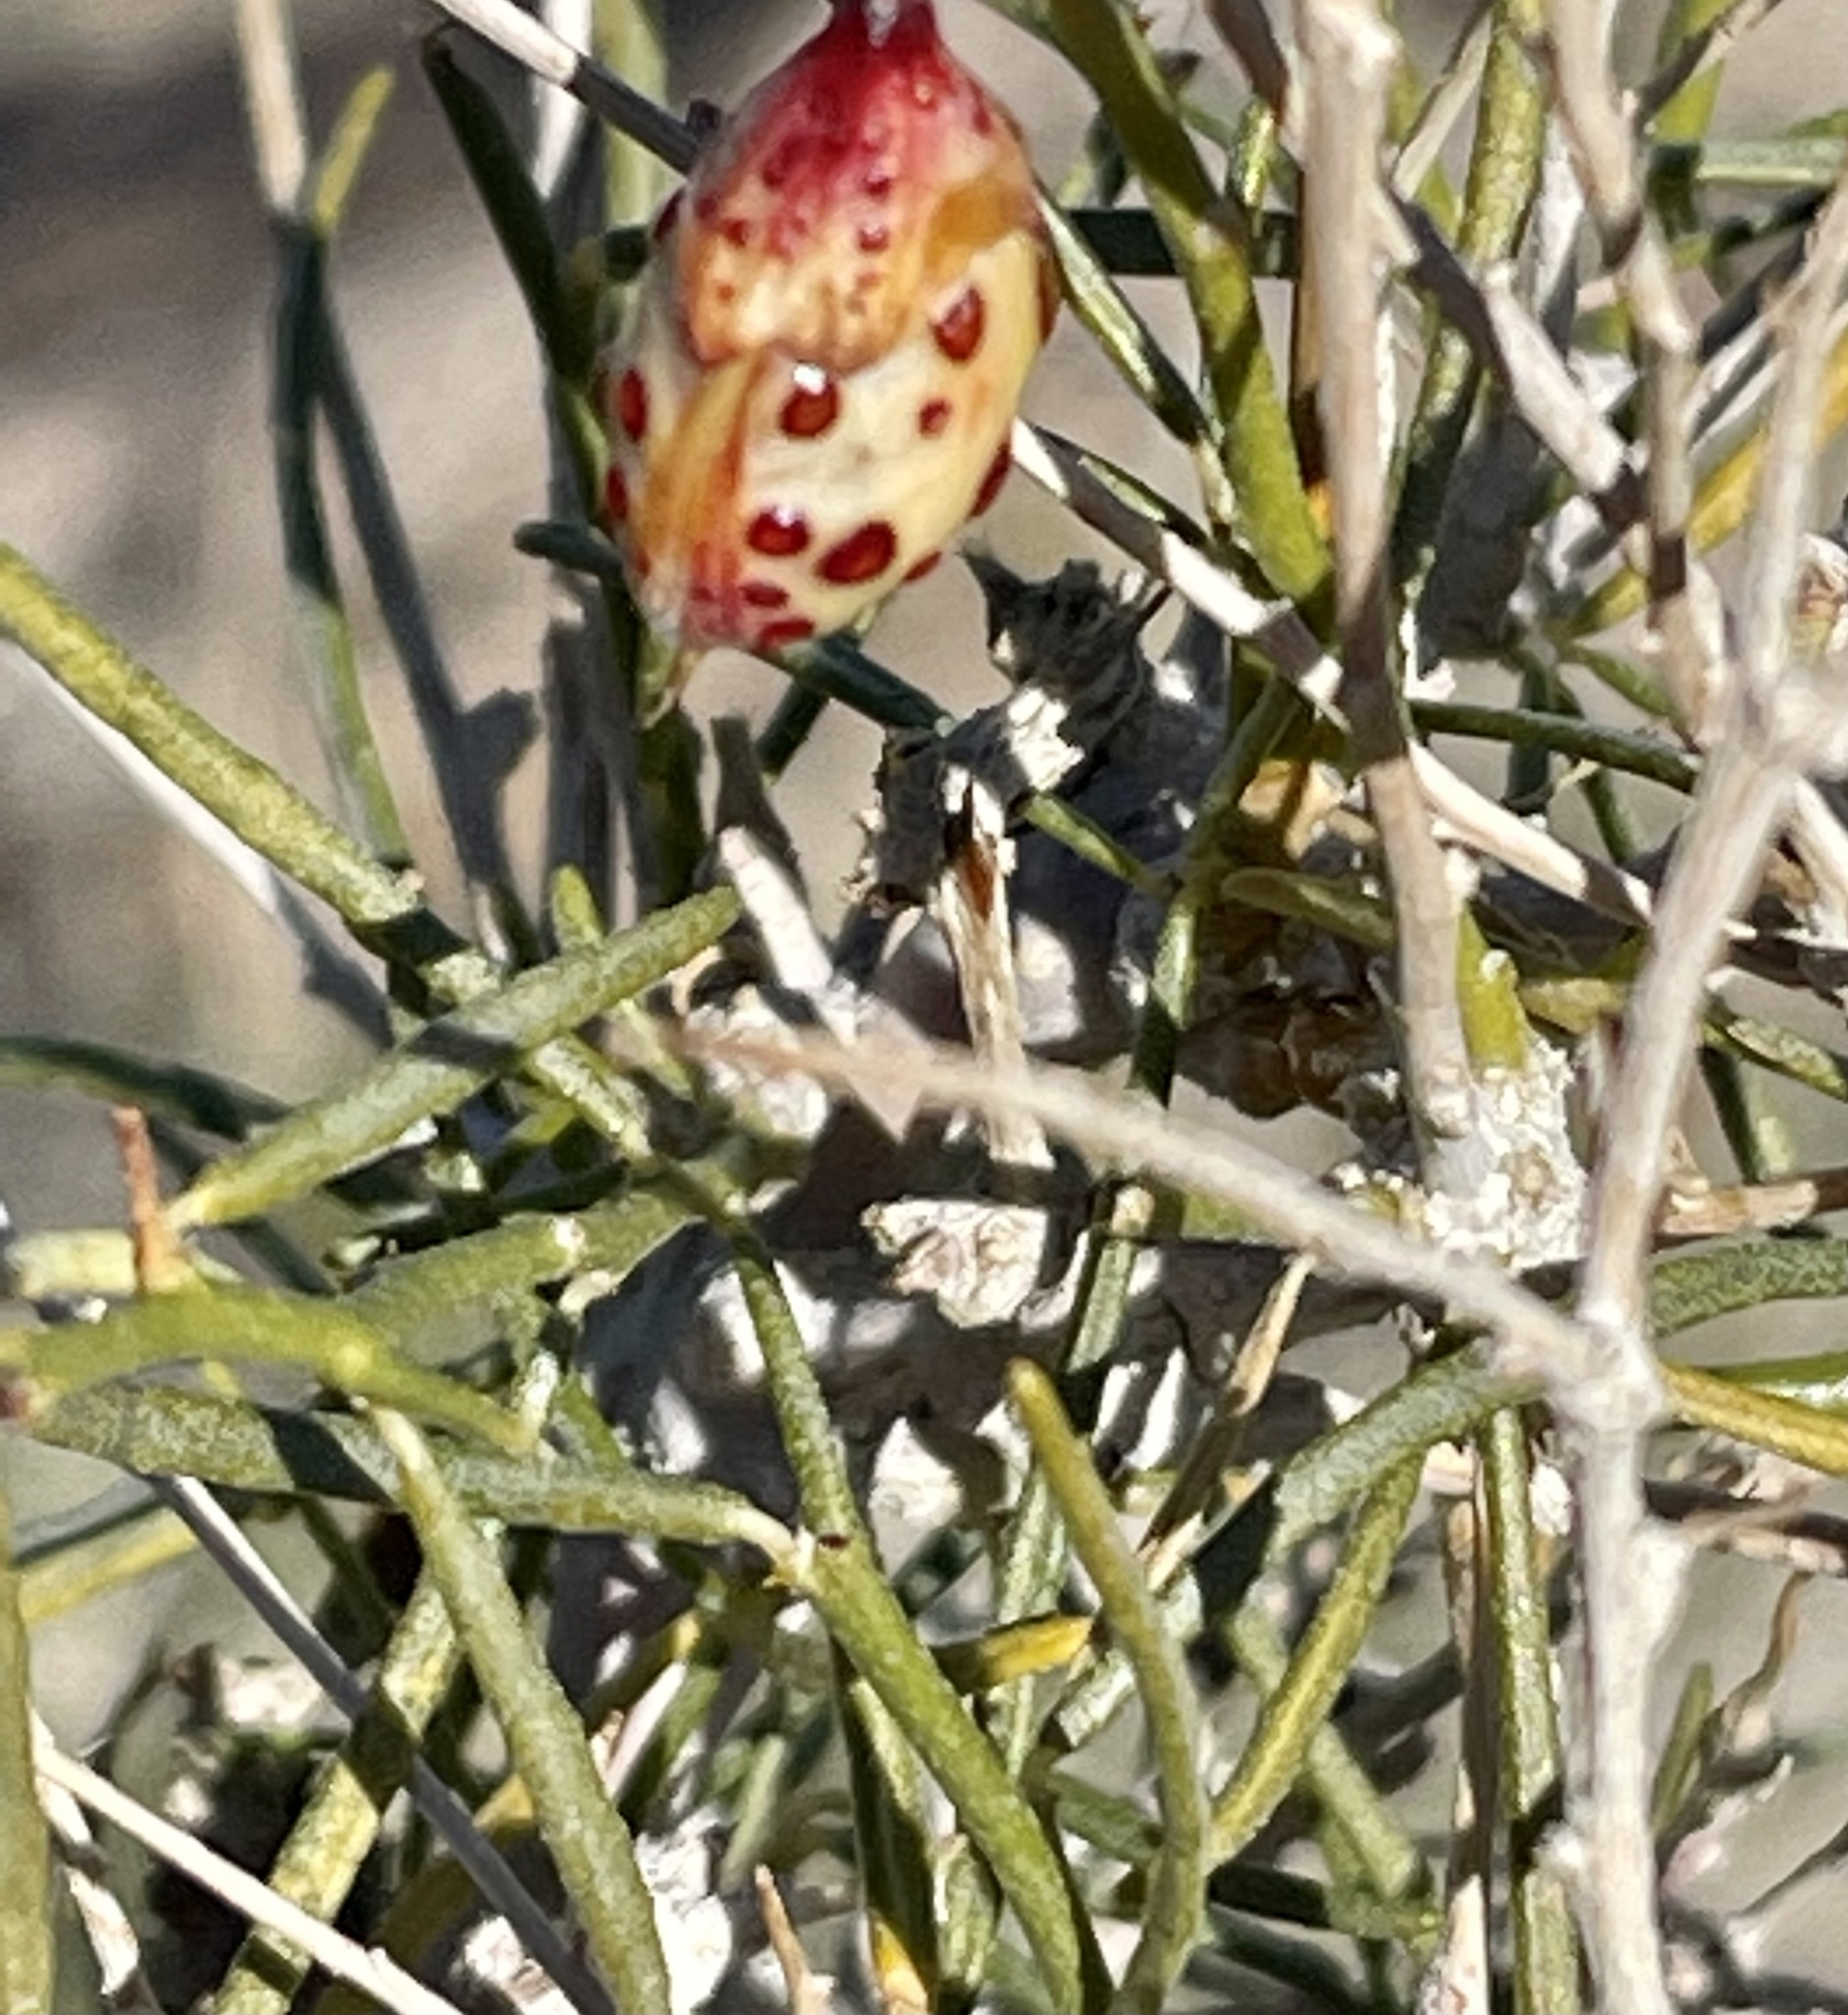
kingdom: Plantae
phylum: Tracheophyta
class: Magnoliopsida
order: Fabales
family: Fabaceae
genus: Psorothamnus
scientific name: Psorothamnus schottii
